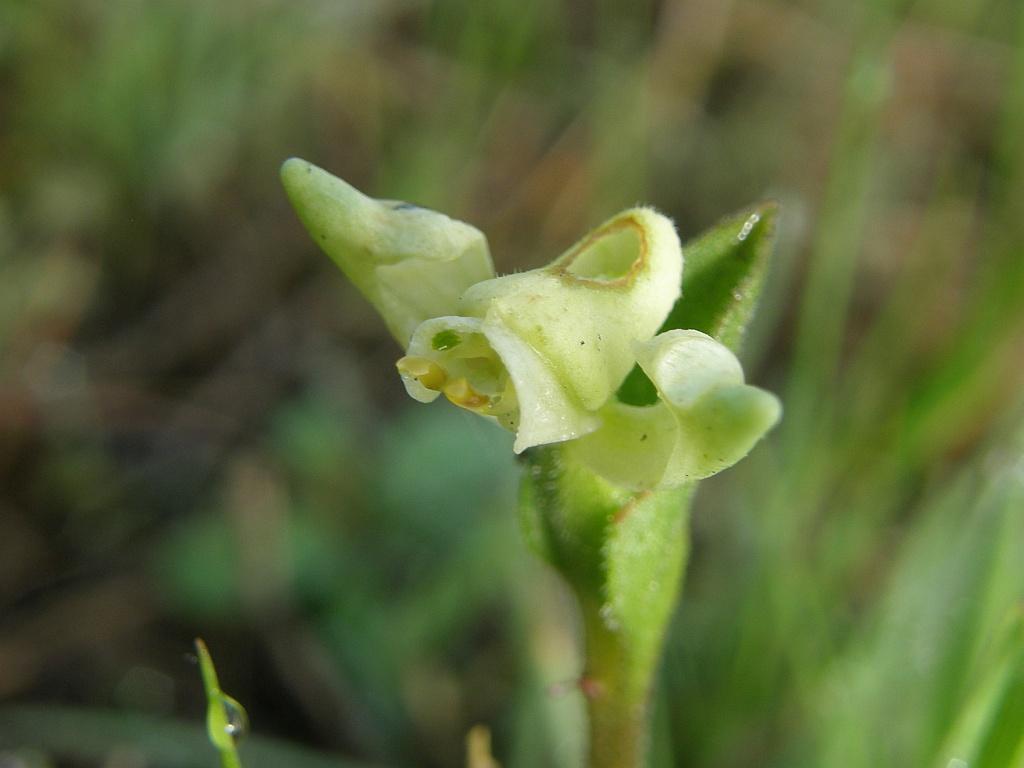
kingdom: Plantae
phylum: Tracheophyta
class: Liliopsida
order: Asparagales
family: Orchidaceae
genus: Disperis
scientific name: Disperis villosa
